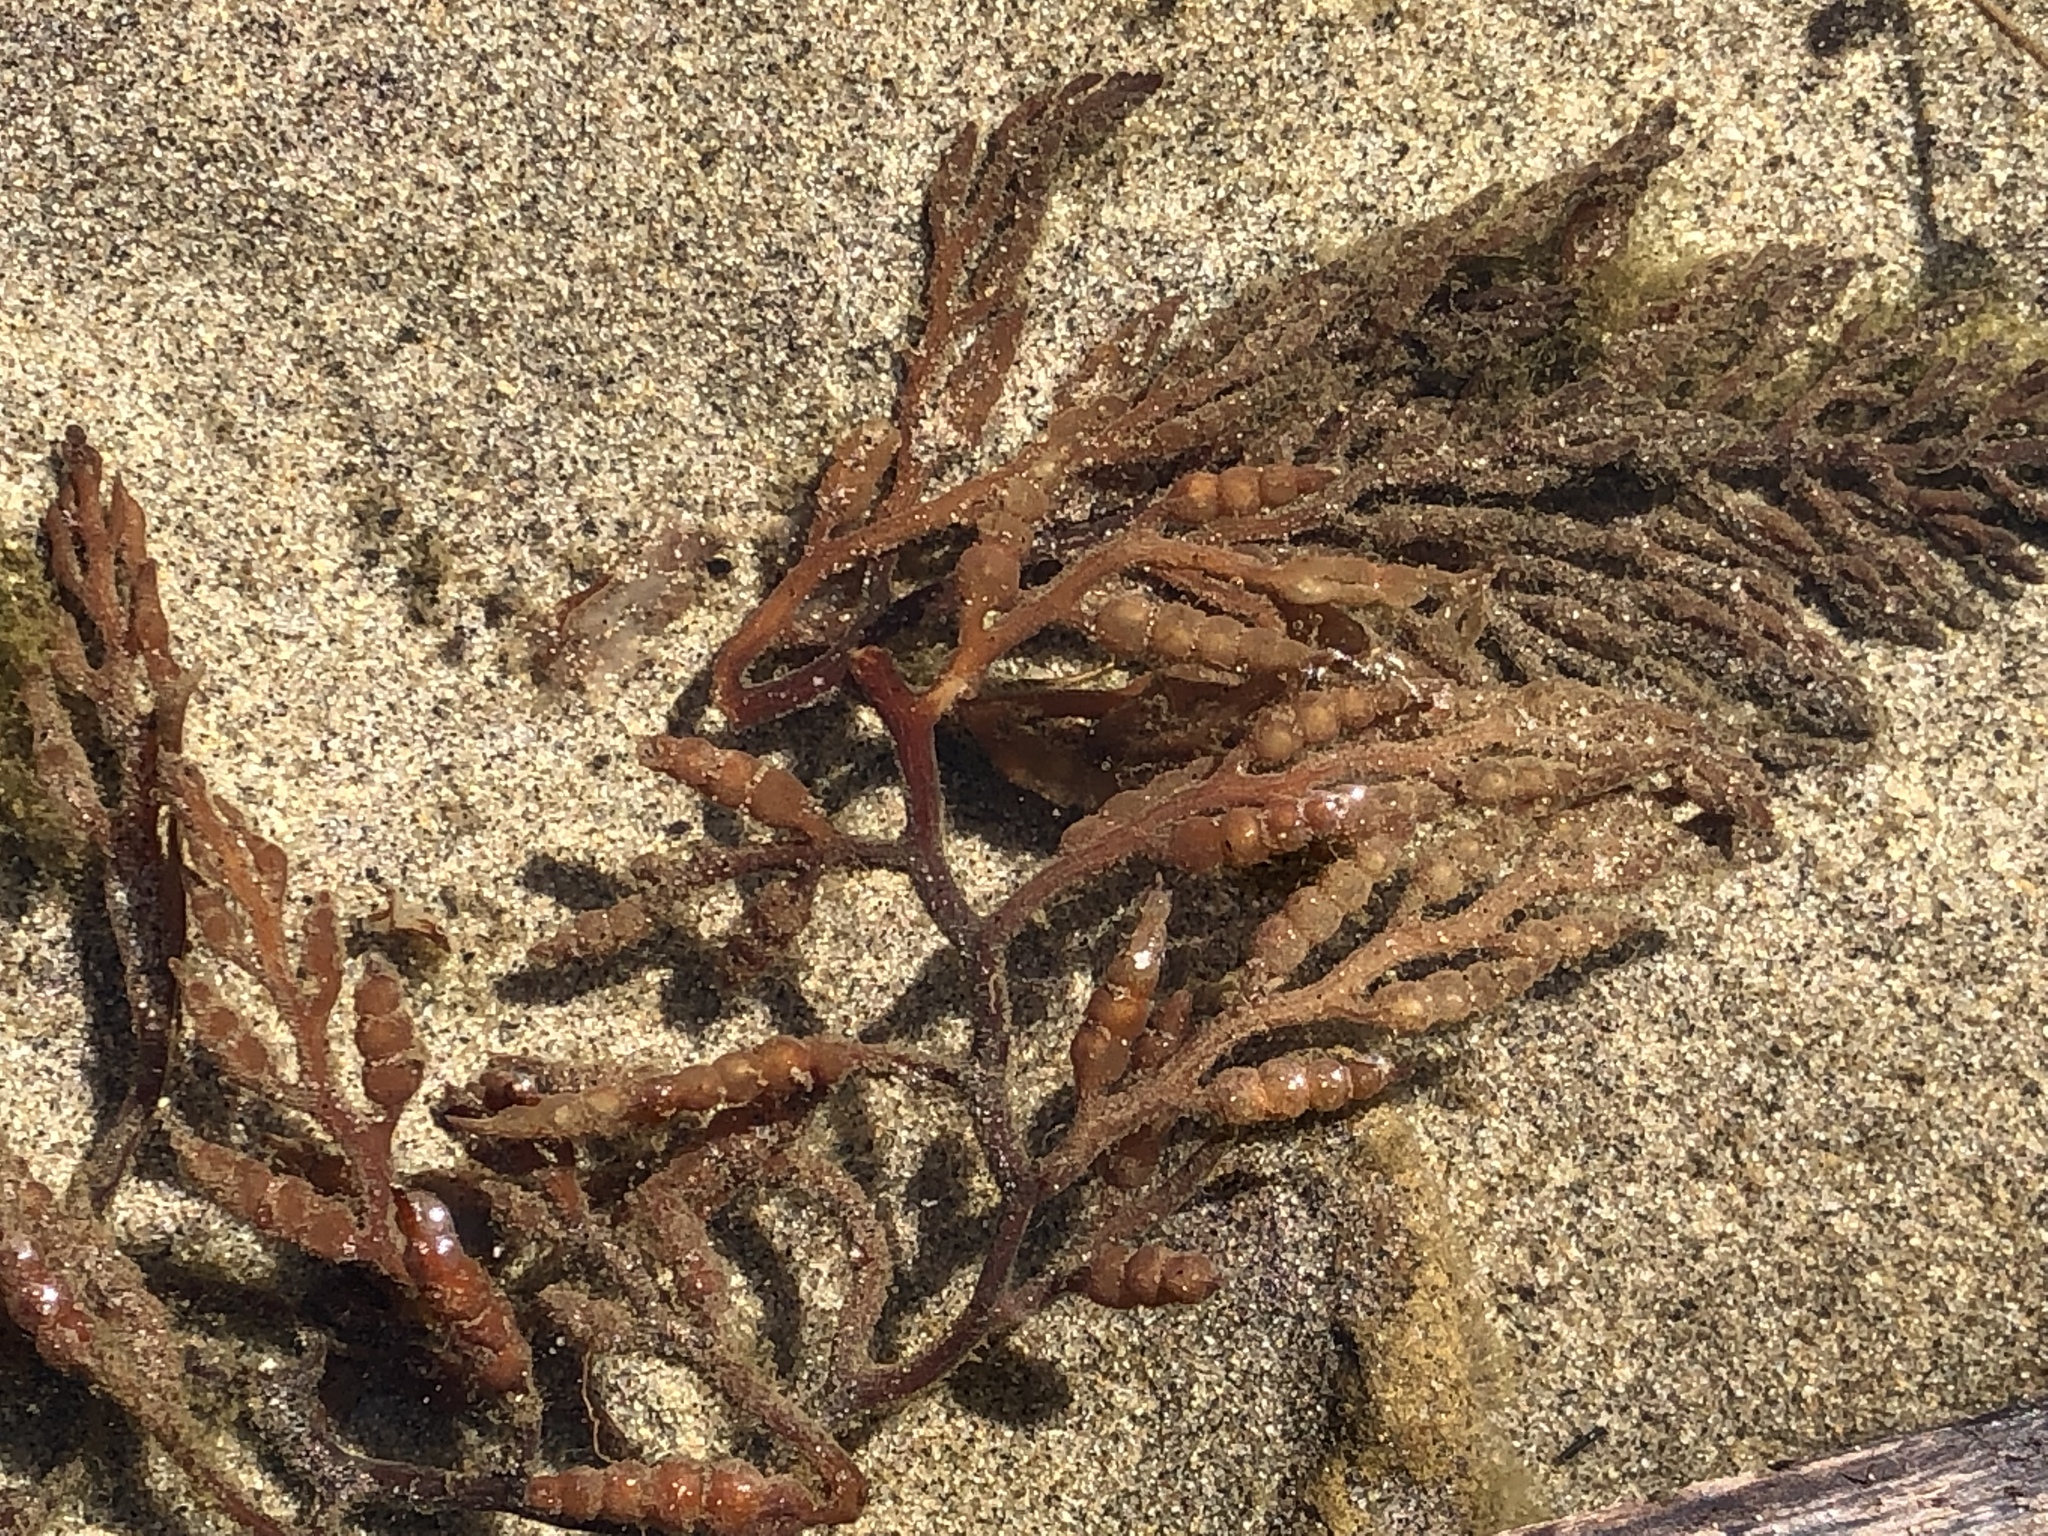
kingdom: Chromista
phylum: Ochrophyta
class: Phaeophyceae
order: Fucales
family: Sargassaceae
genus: Stephanocystis
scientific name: Stephanocystis
